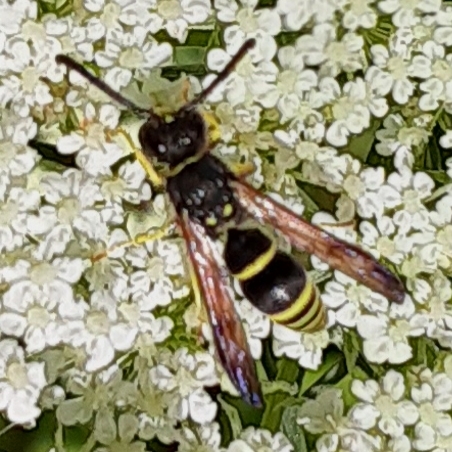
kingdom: Animalia
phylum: Arthropoda
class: Insecta
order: Hymenoptera
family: Vespidae
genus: Ancistrocerus
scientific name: Ancistrocerus adiabatus
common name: Bramble mason wasp
